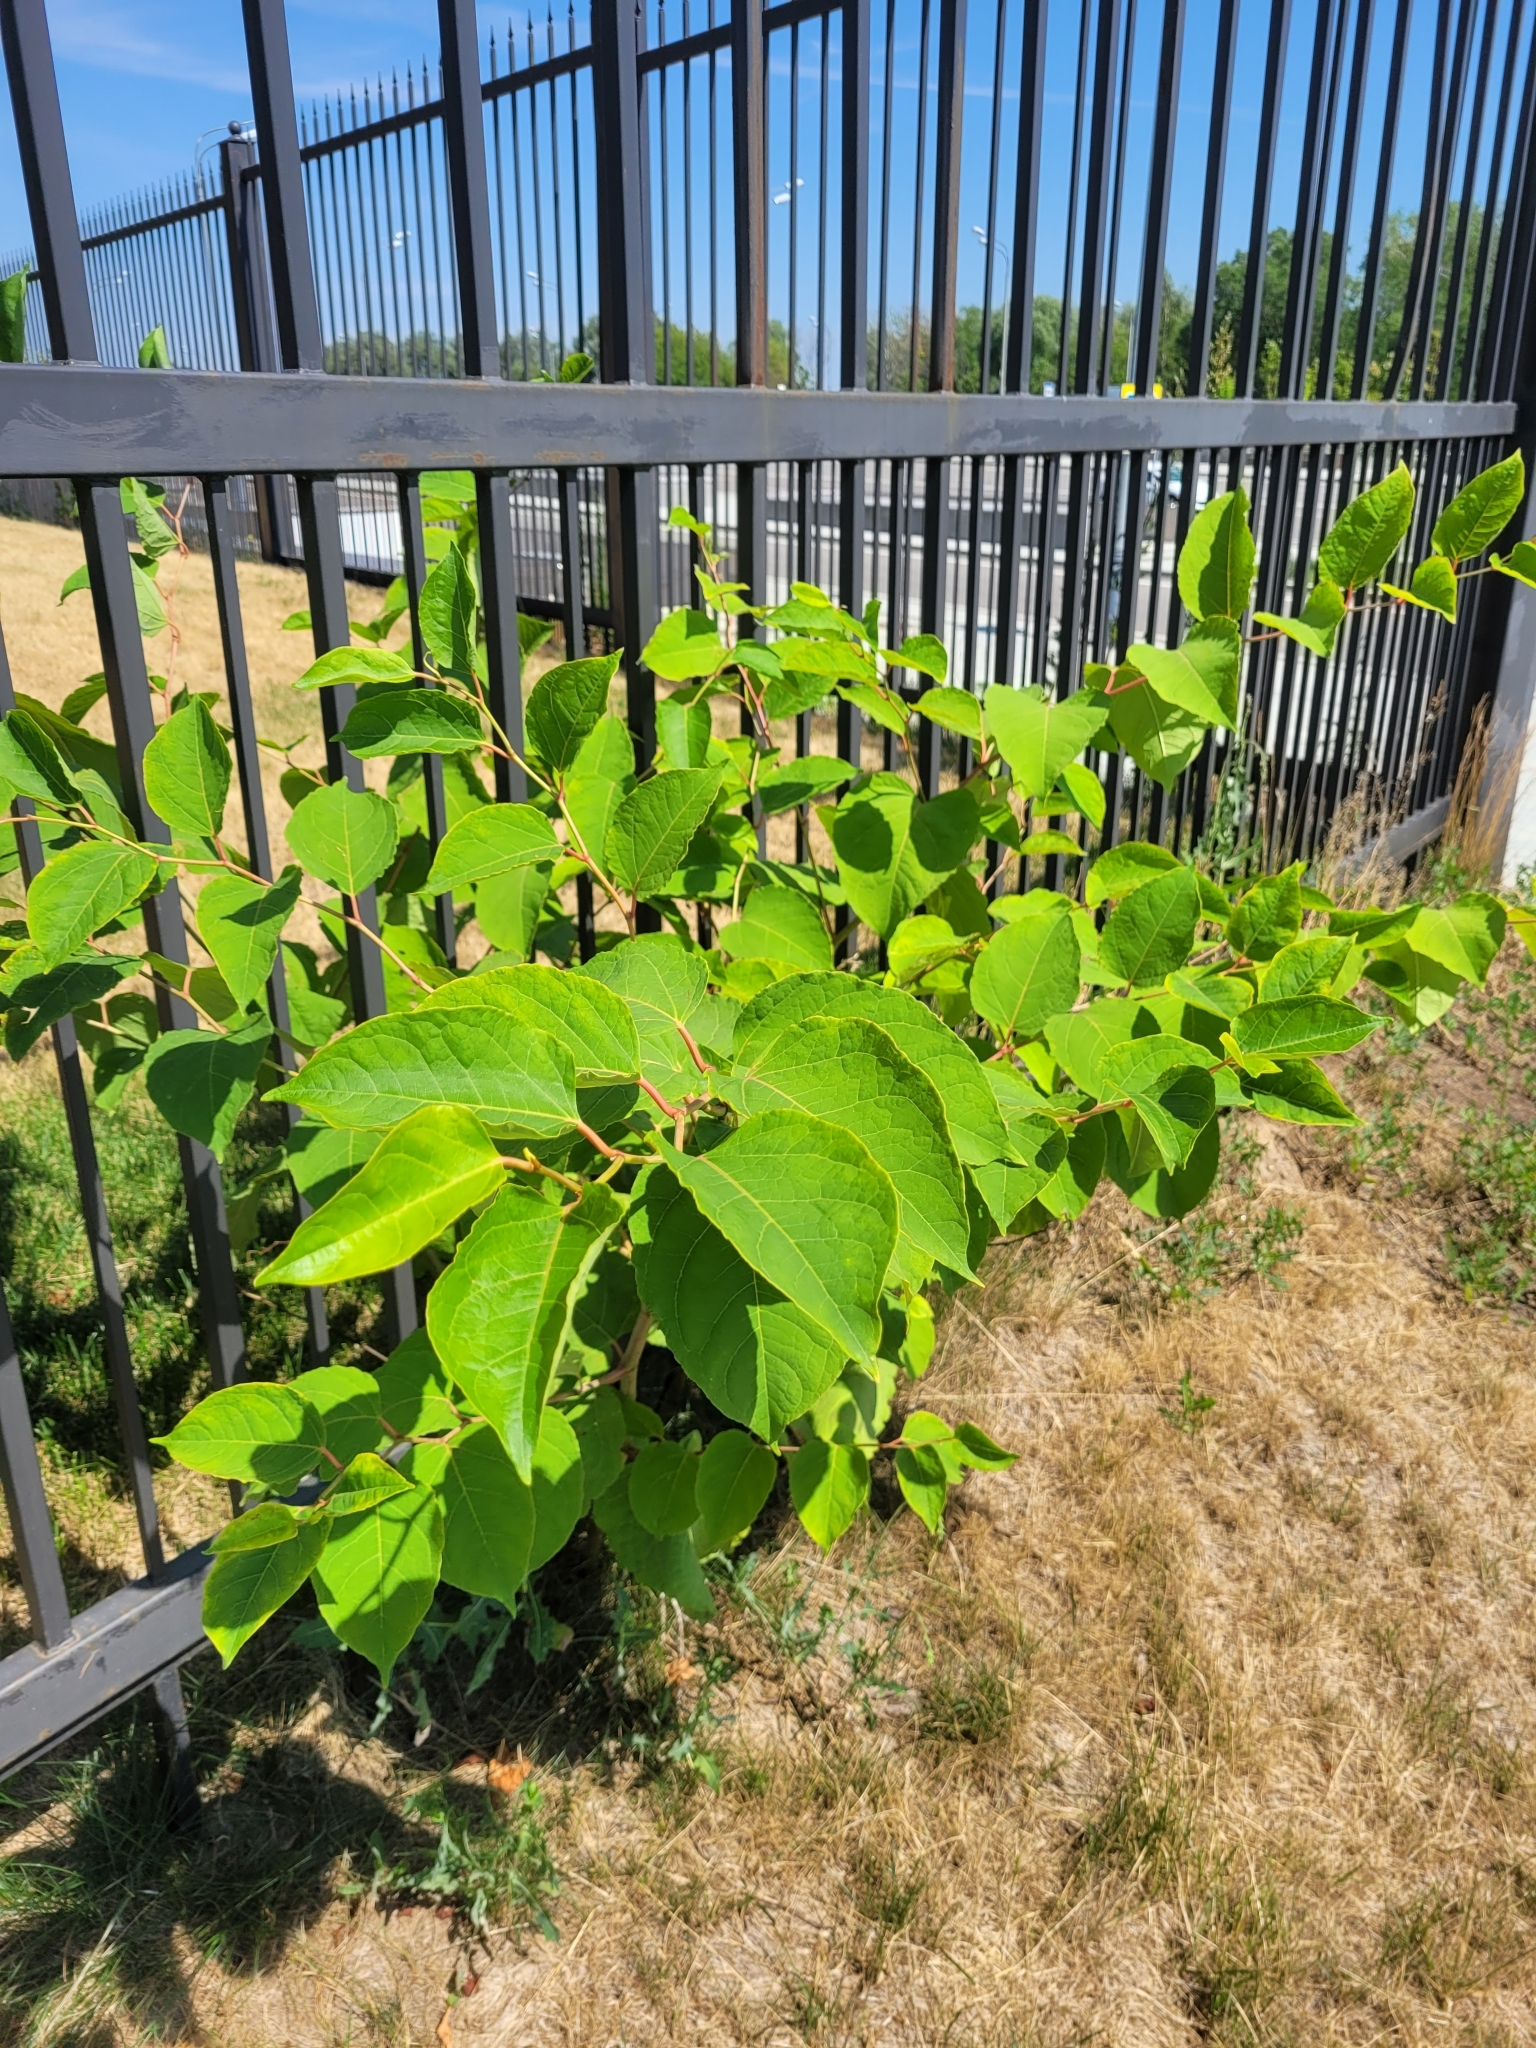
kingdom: Plantae
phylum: Tracheophyta
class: Magnoliopsida
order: Caryophyllales
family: Polygonaceae
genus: Reynoutria
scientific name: Reynoutria japonica
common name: Japanese knotweed
